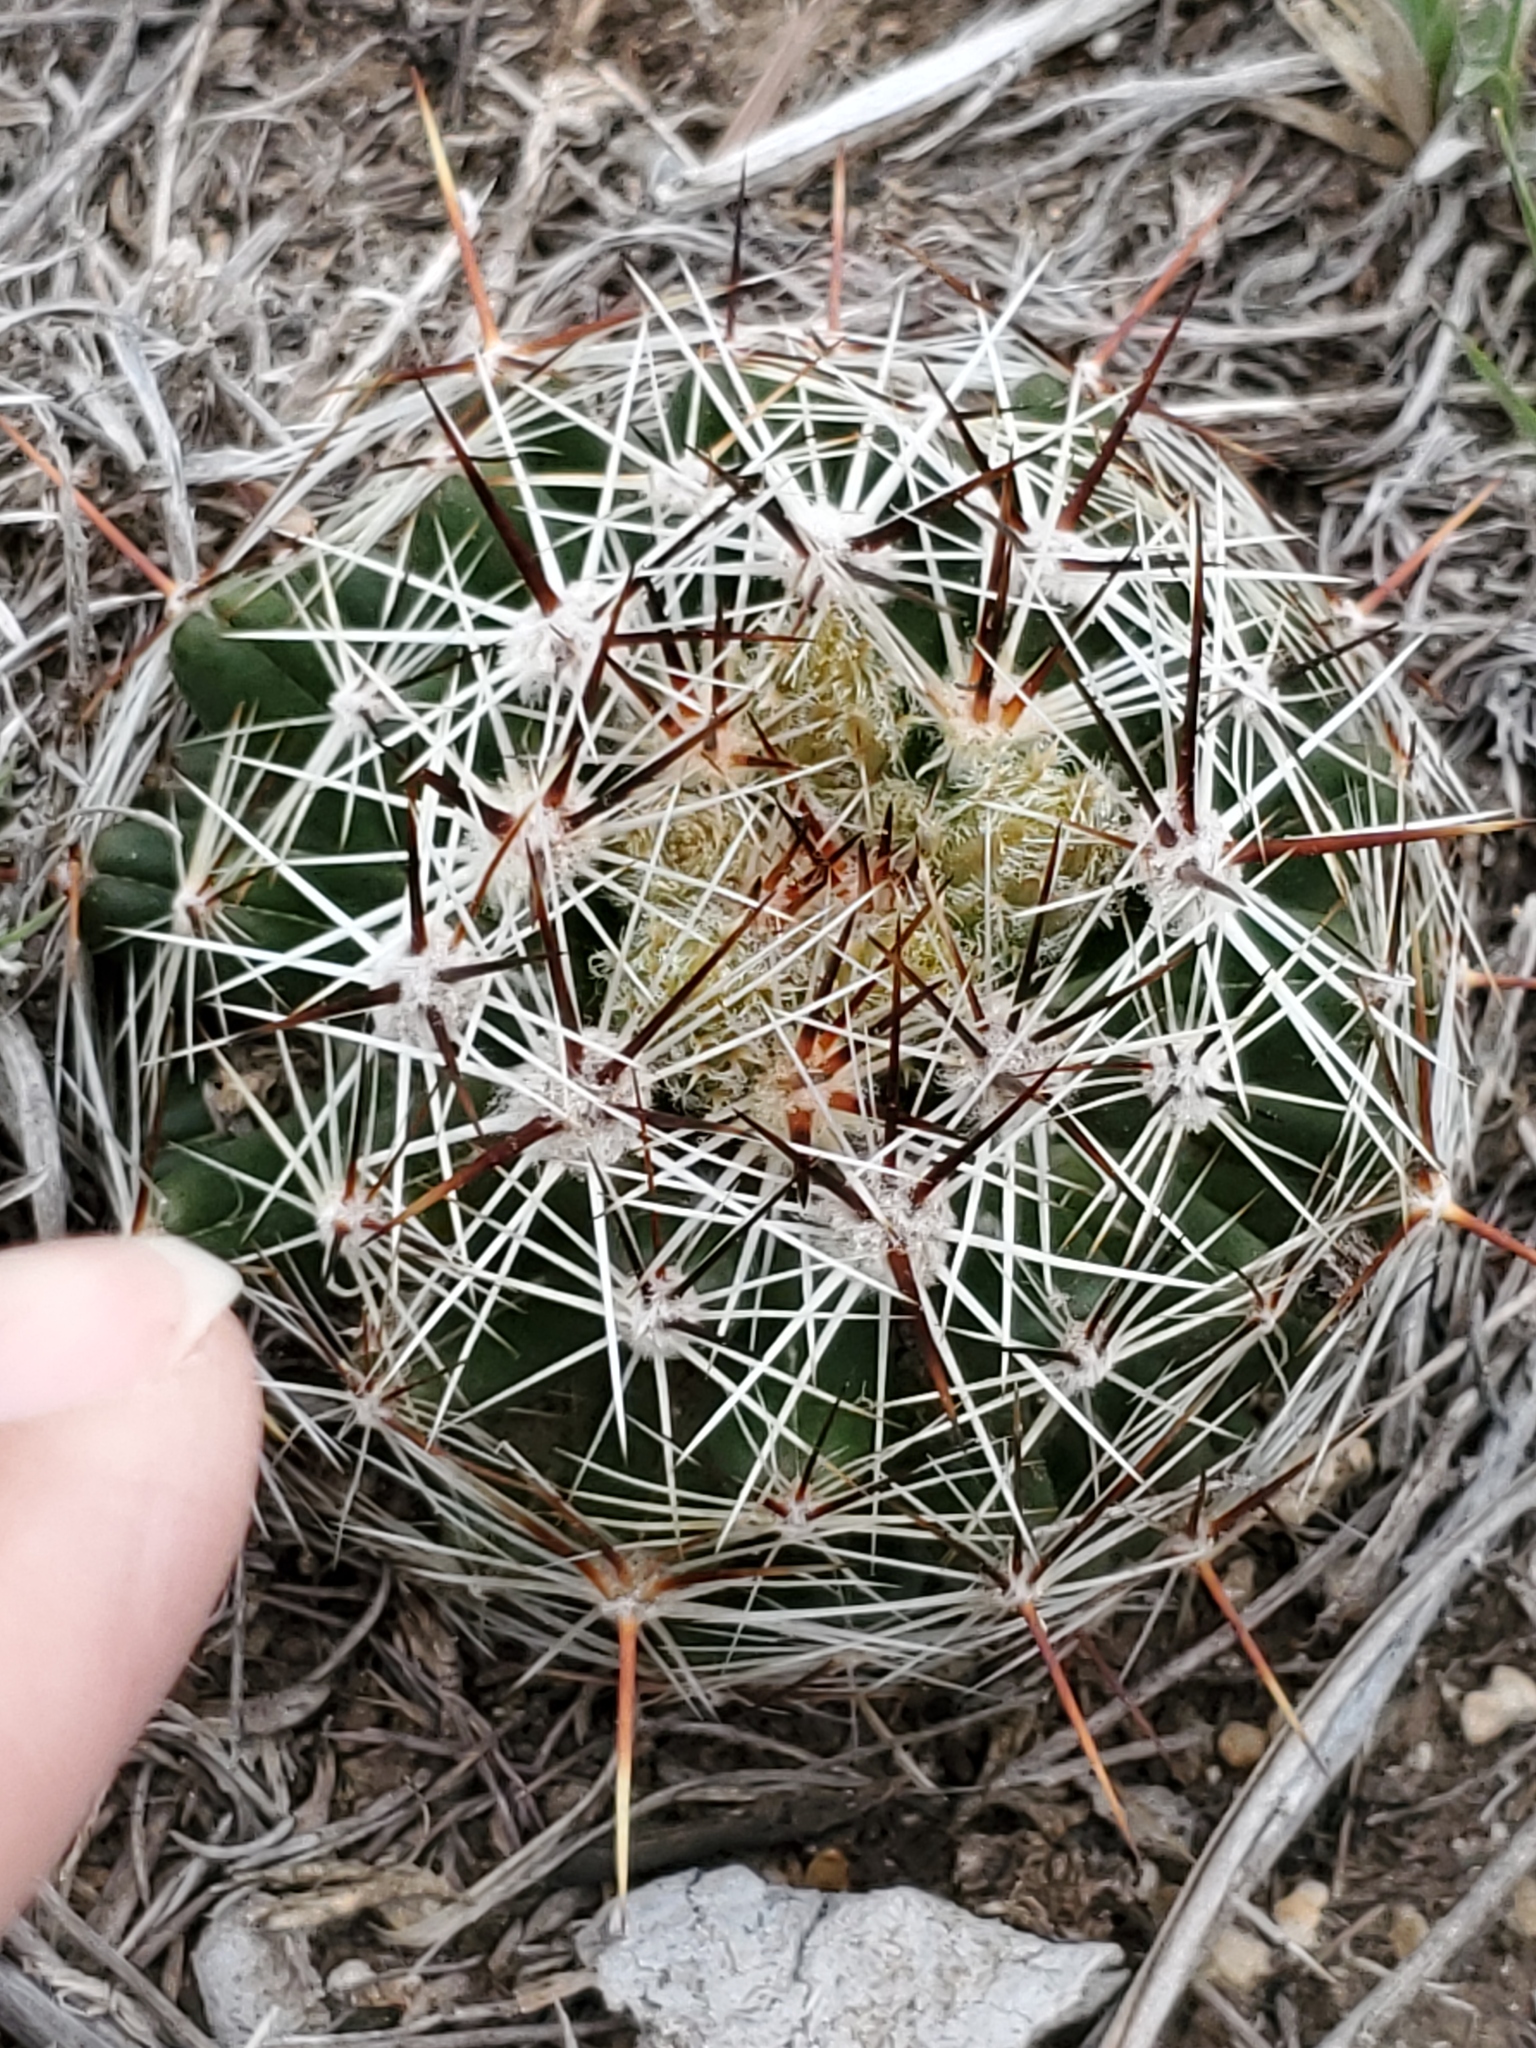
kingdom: Plantae
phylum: Tracheophyta
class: Magnoliopsida
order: Caryophyllales
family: Cactaceae
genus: Pelecyphora
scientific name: Pelecyphora vivipara
